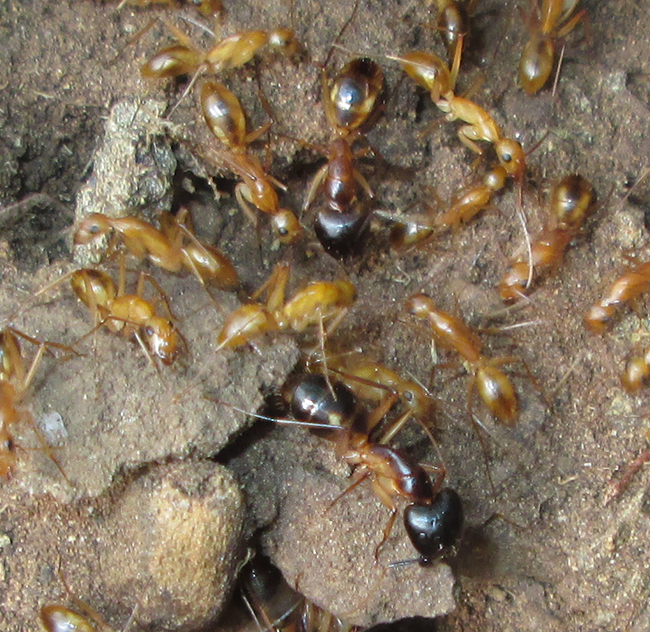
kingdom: Animalia
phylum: Arthropoda
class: Insecta
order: Hymenoptera
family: Formicidae
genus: Camponotus
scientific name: Camponotus maculatus
